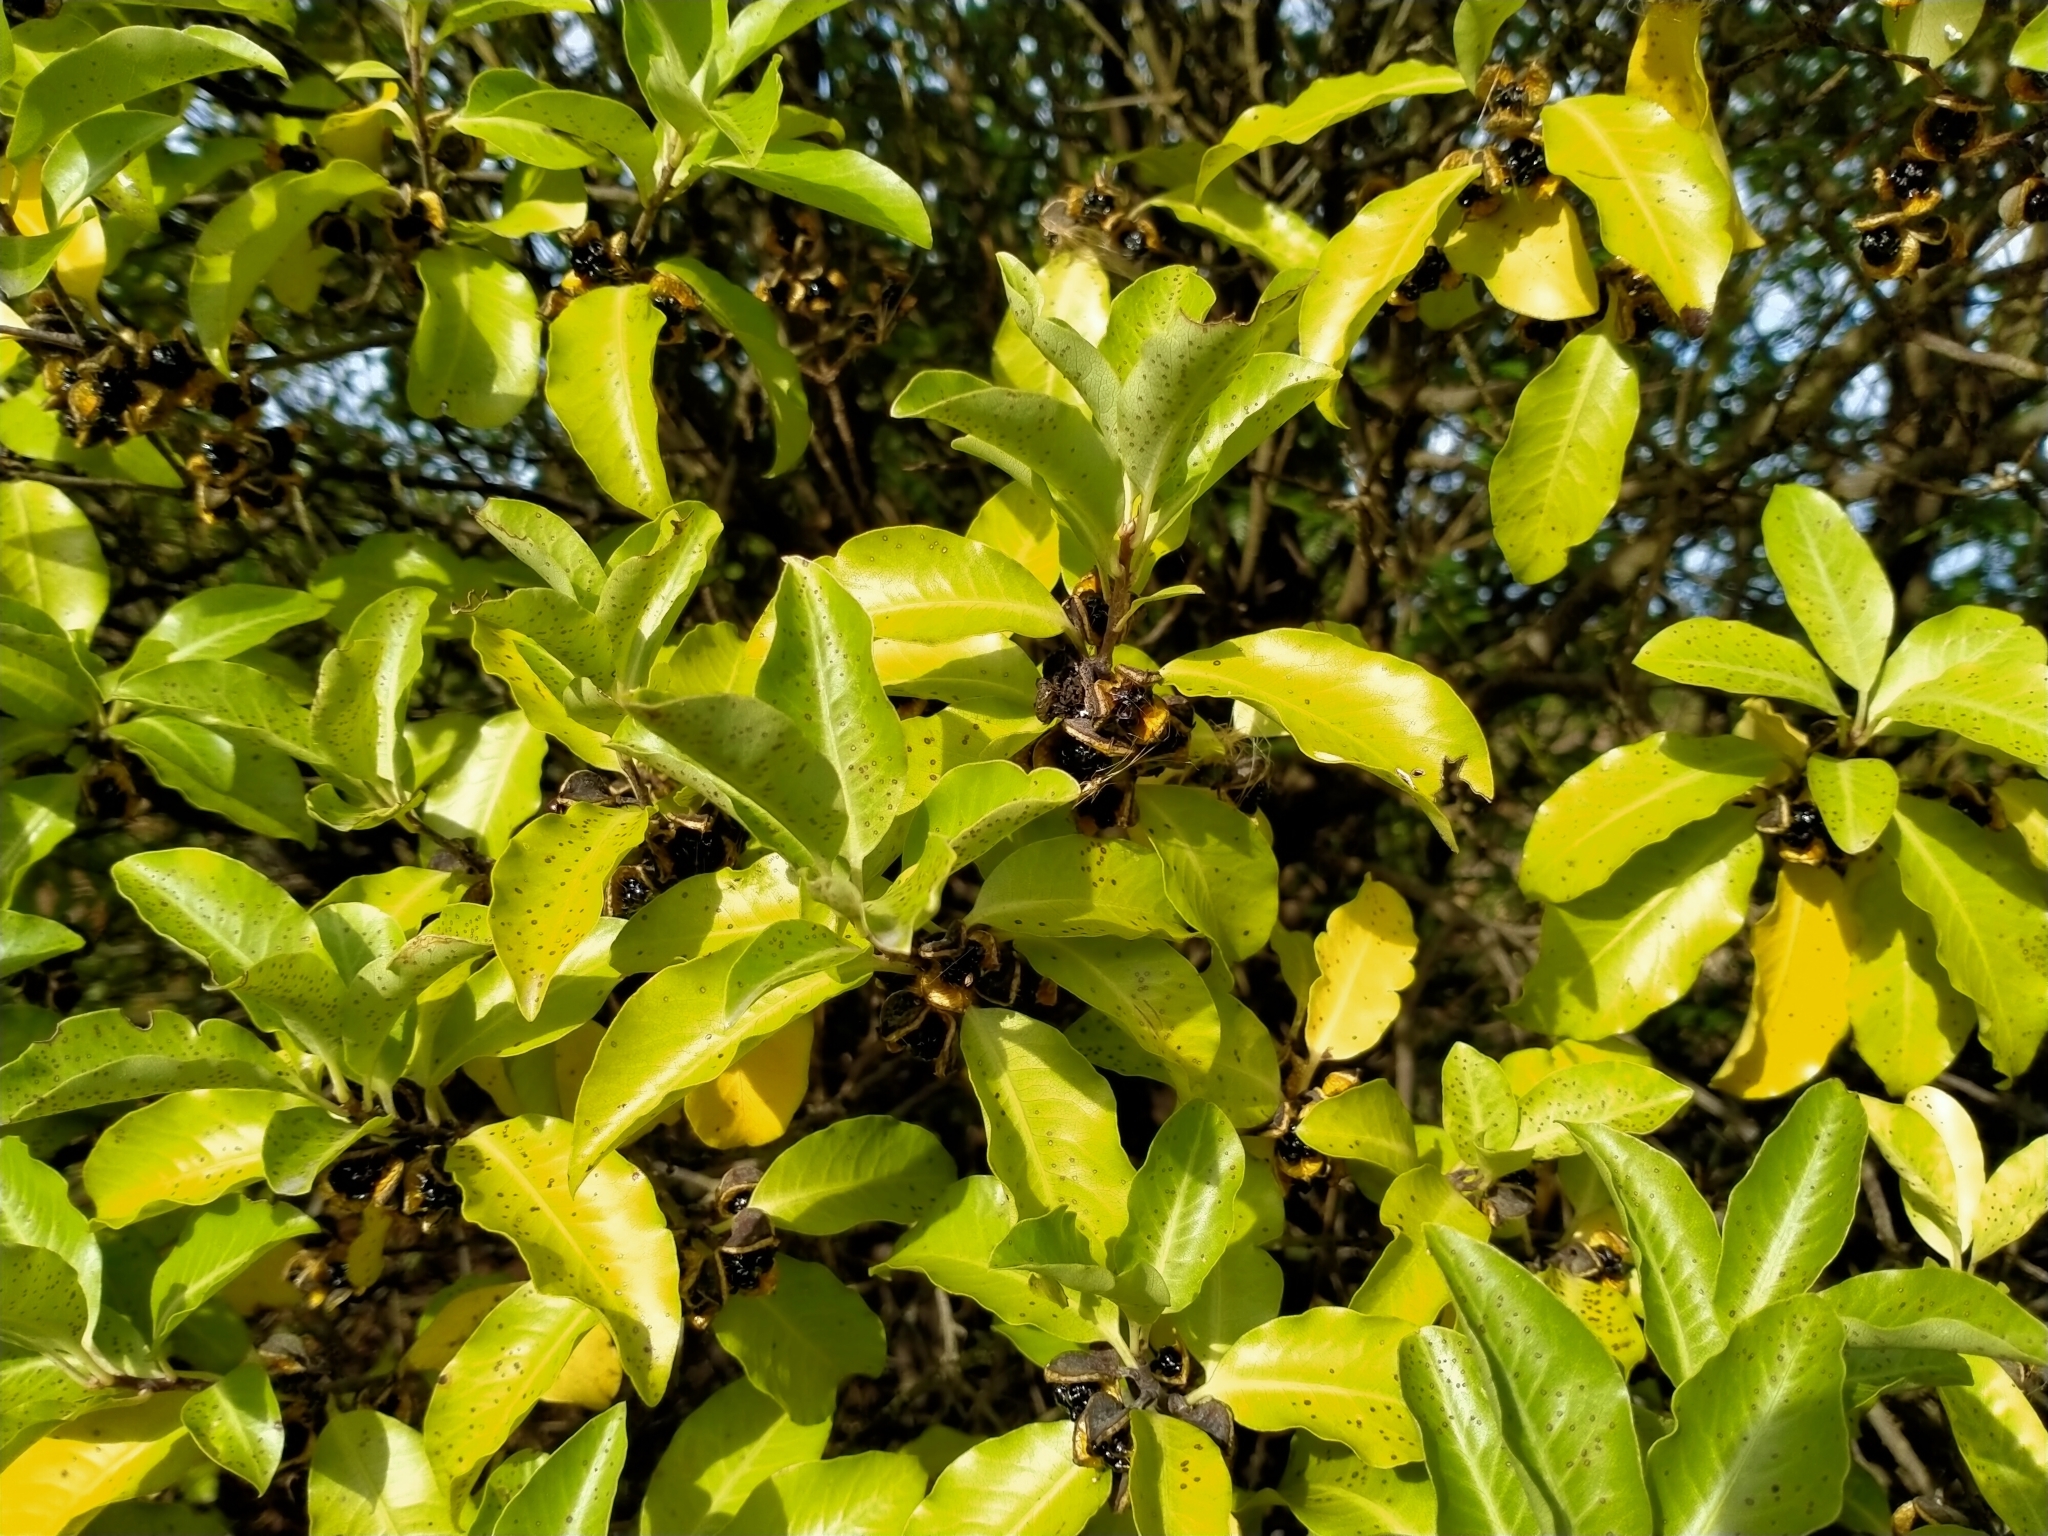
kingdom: Plantae
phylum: Tracheophyta
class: Magnoliopsida
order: Apiales
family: Pittosporaceae
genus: Pittosporum
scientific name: Pittosporum tenuifolium
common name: Kohuhu
